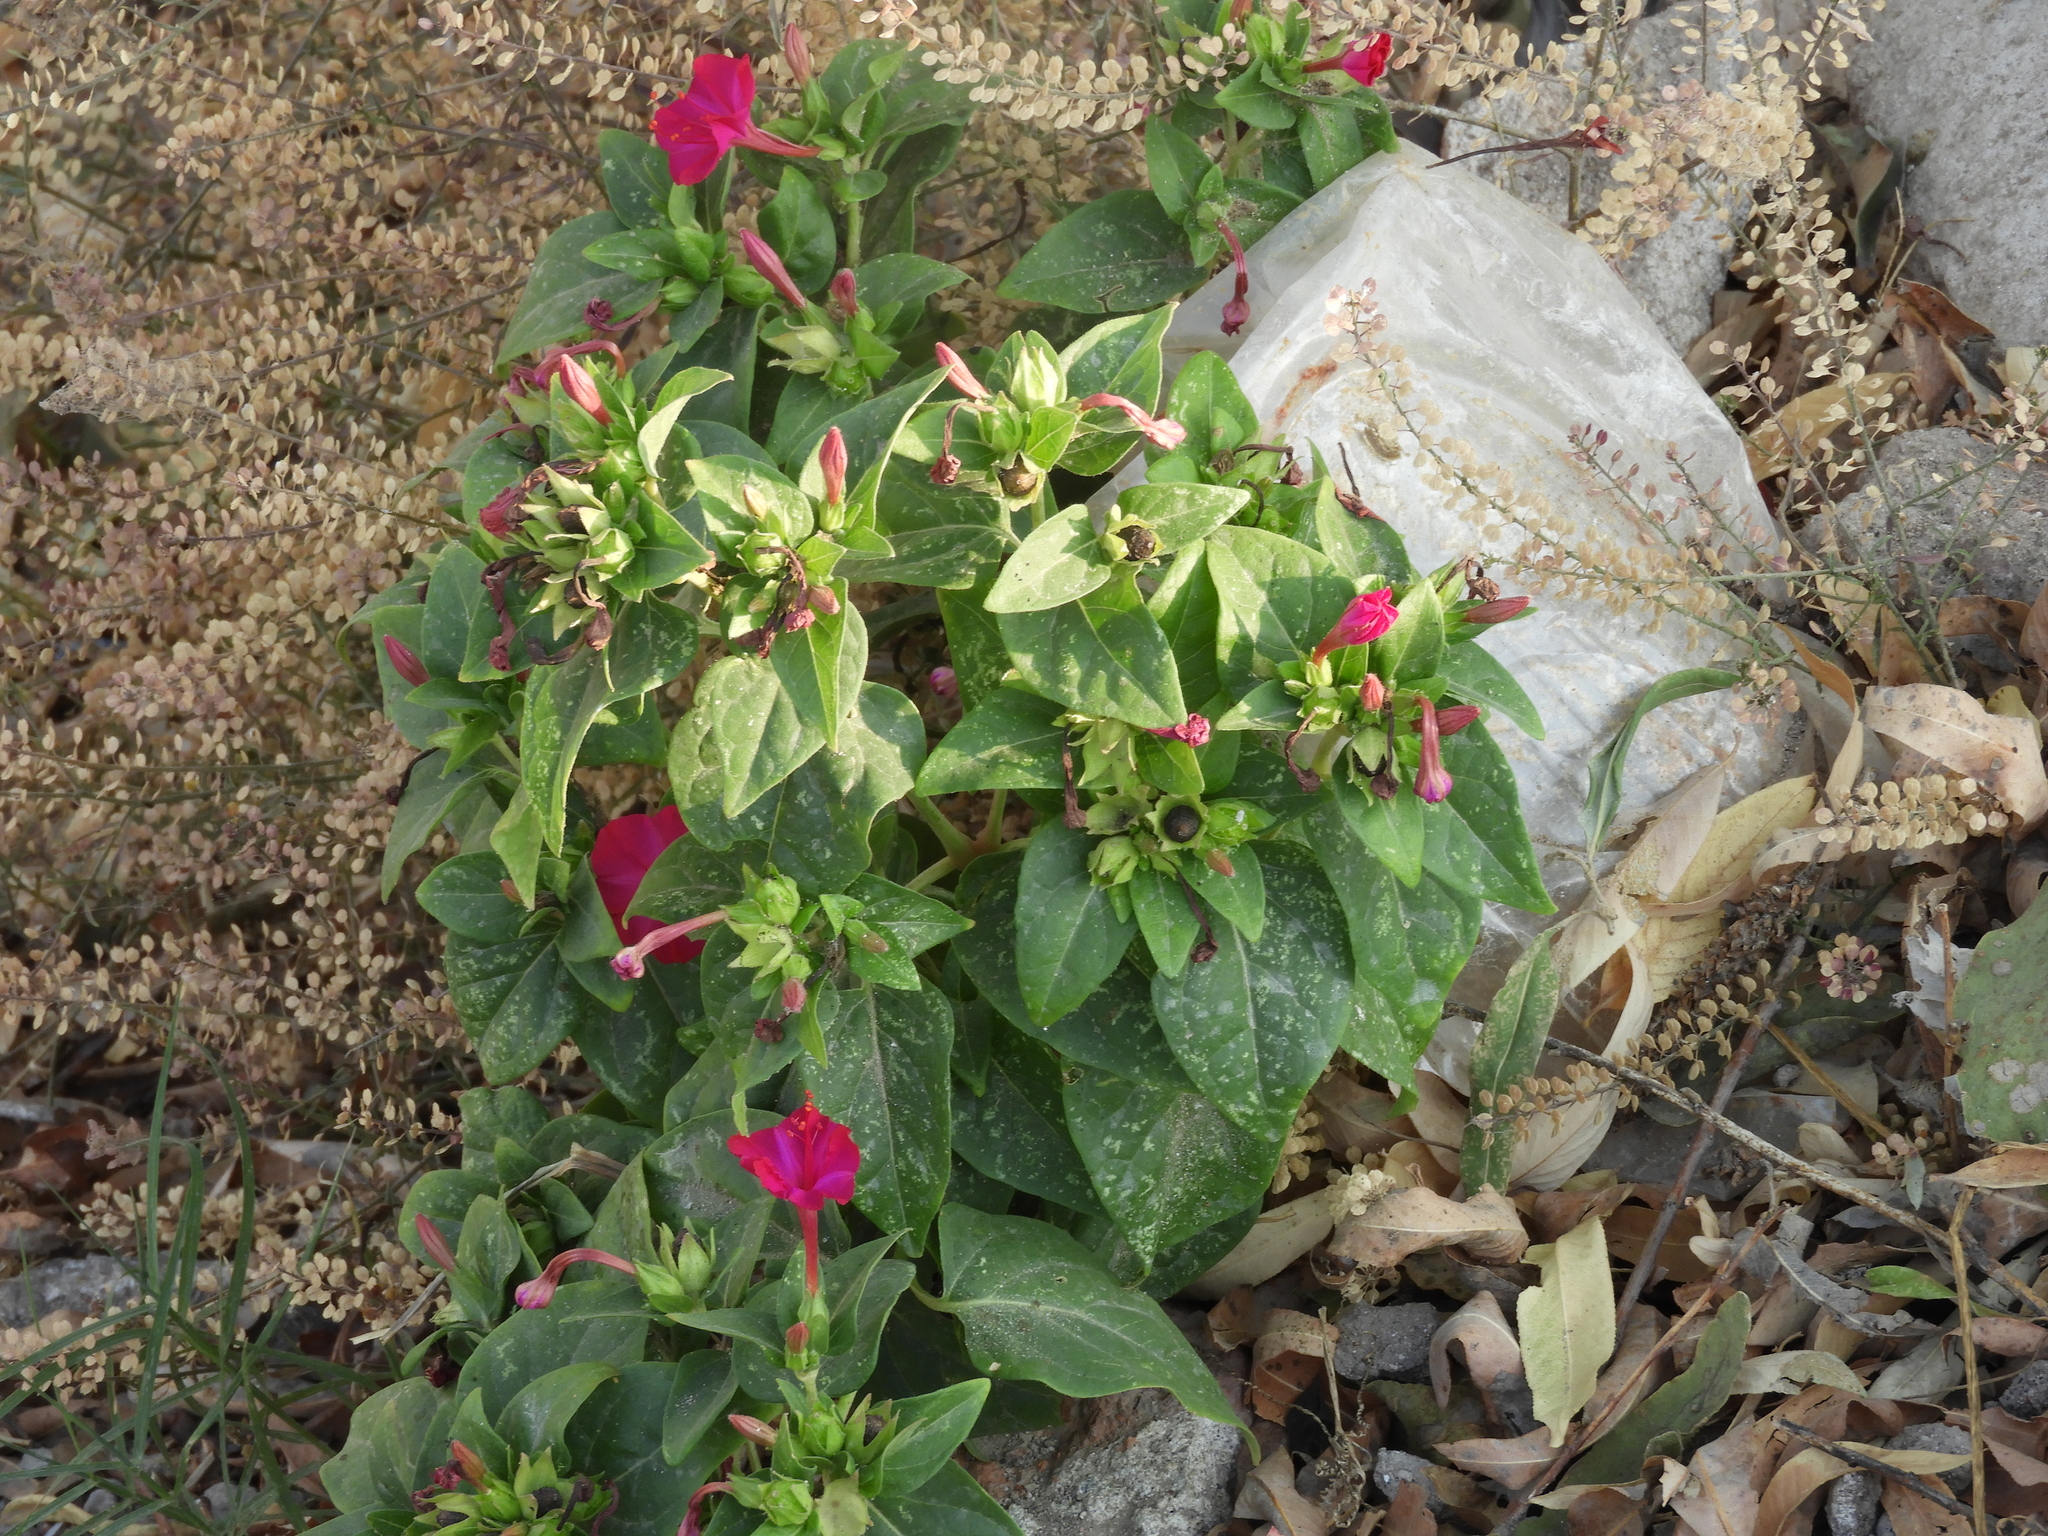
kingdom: Plantae
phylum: Tracheophyta
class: Magnoliopsida
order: Caryophyllales
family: Nyctaginaceae
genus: Mirabilis
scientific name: Mirabilis jalapa
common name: Marvel-of-peru
